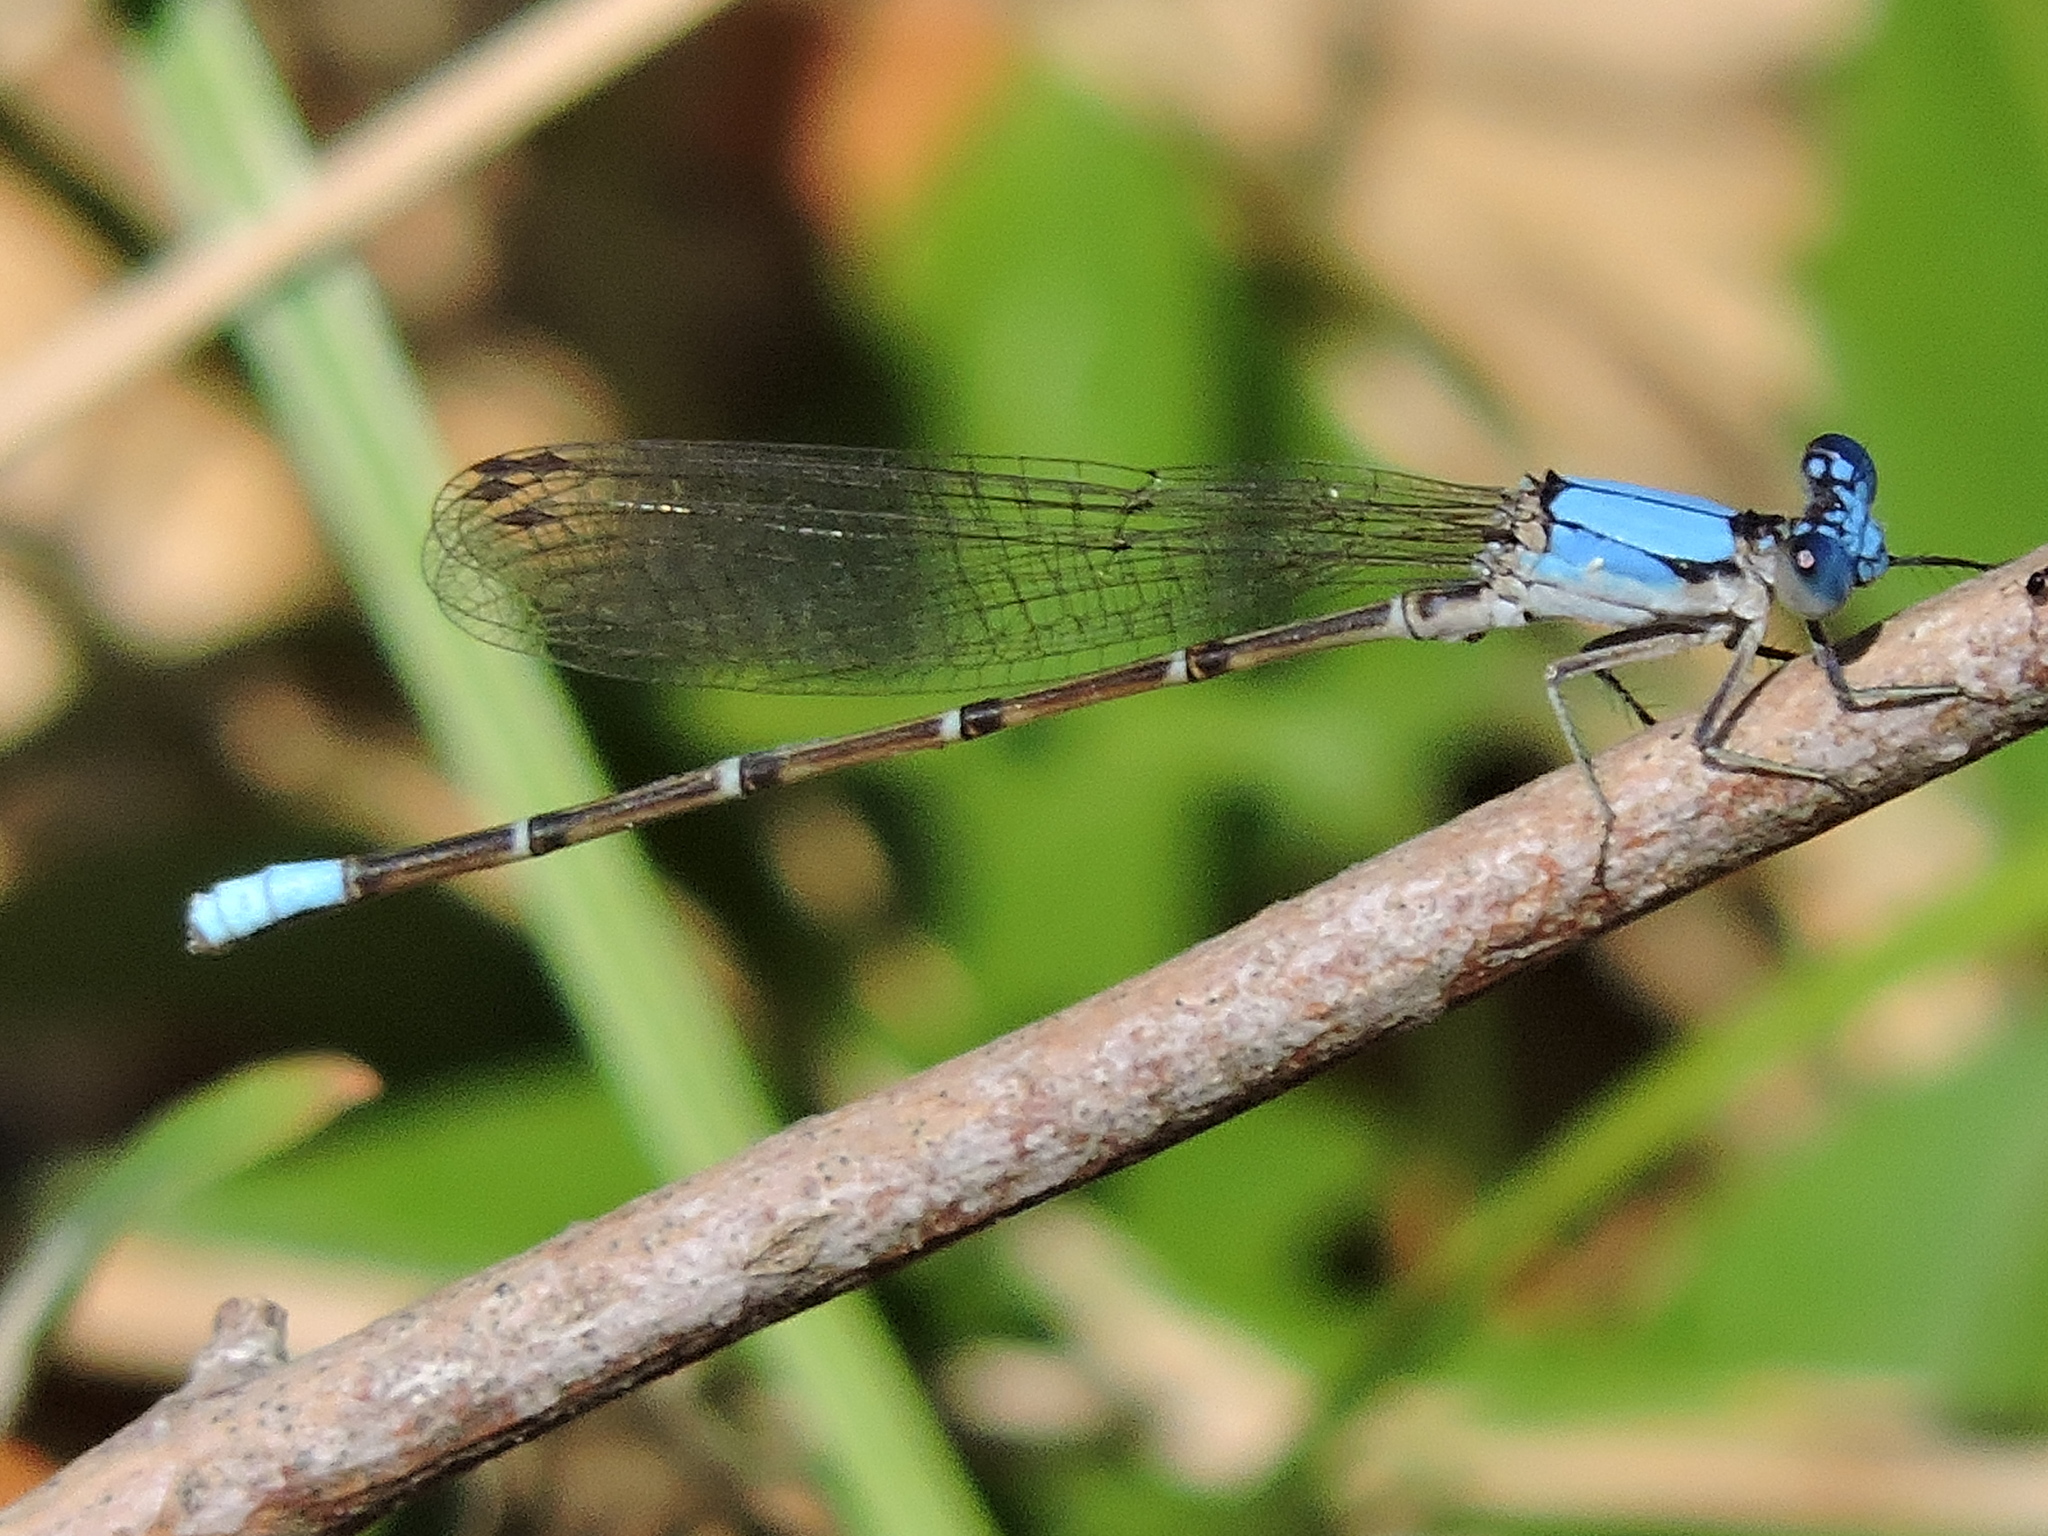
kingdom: Animalia
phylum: Arthropoda
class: Insecta
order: Odonata
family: Coenagrionidae
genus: Argia
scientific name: Argia apicalis
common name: Blue-fronted dancer
